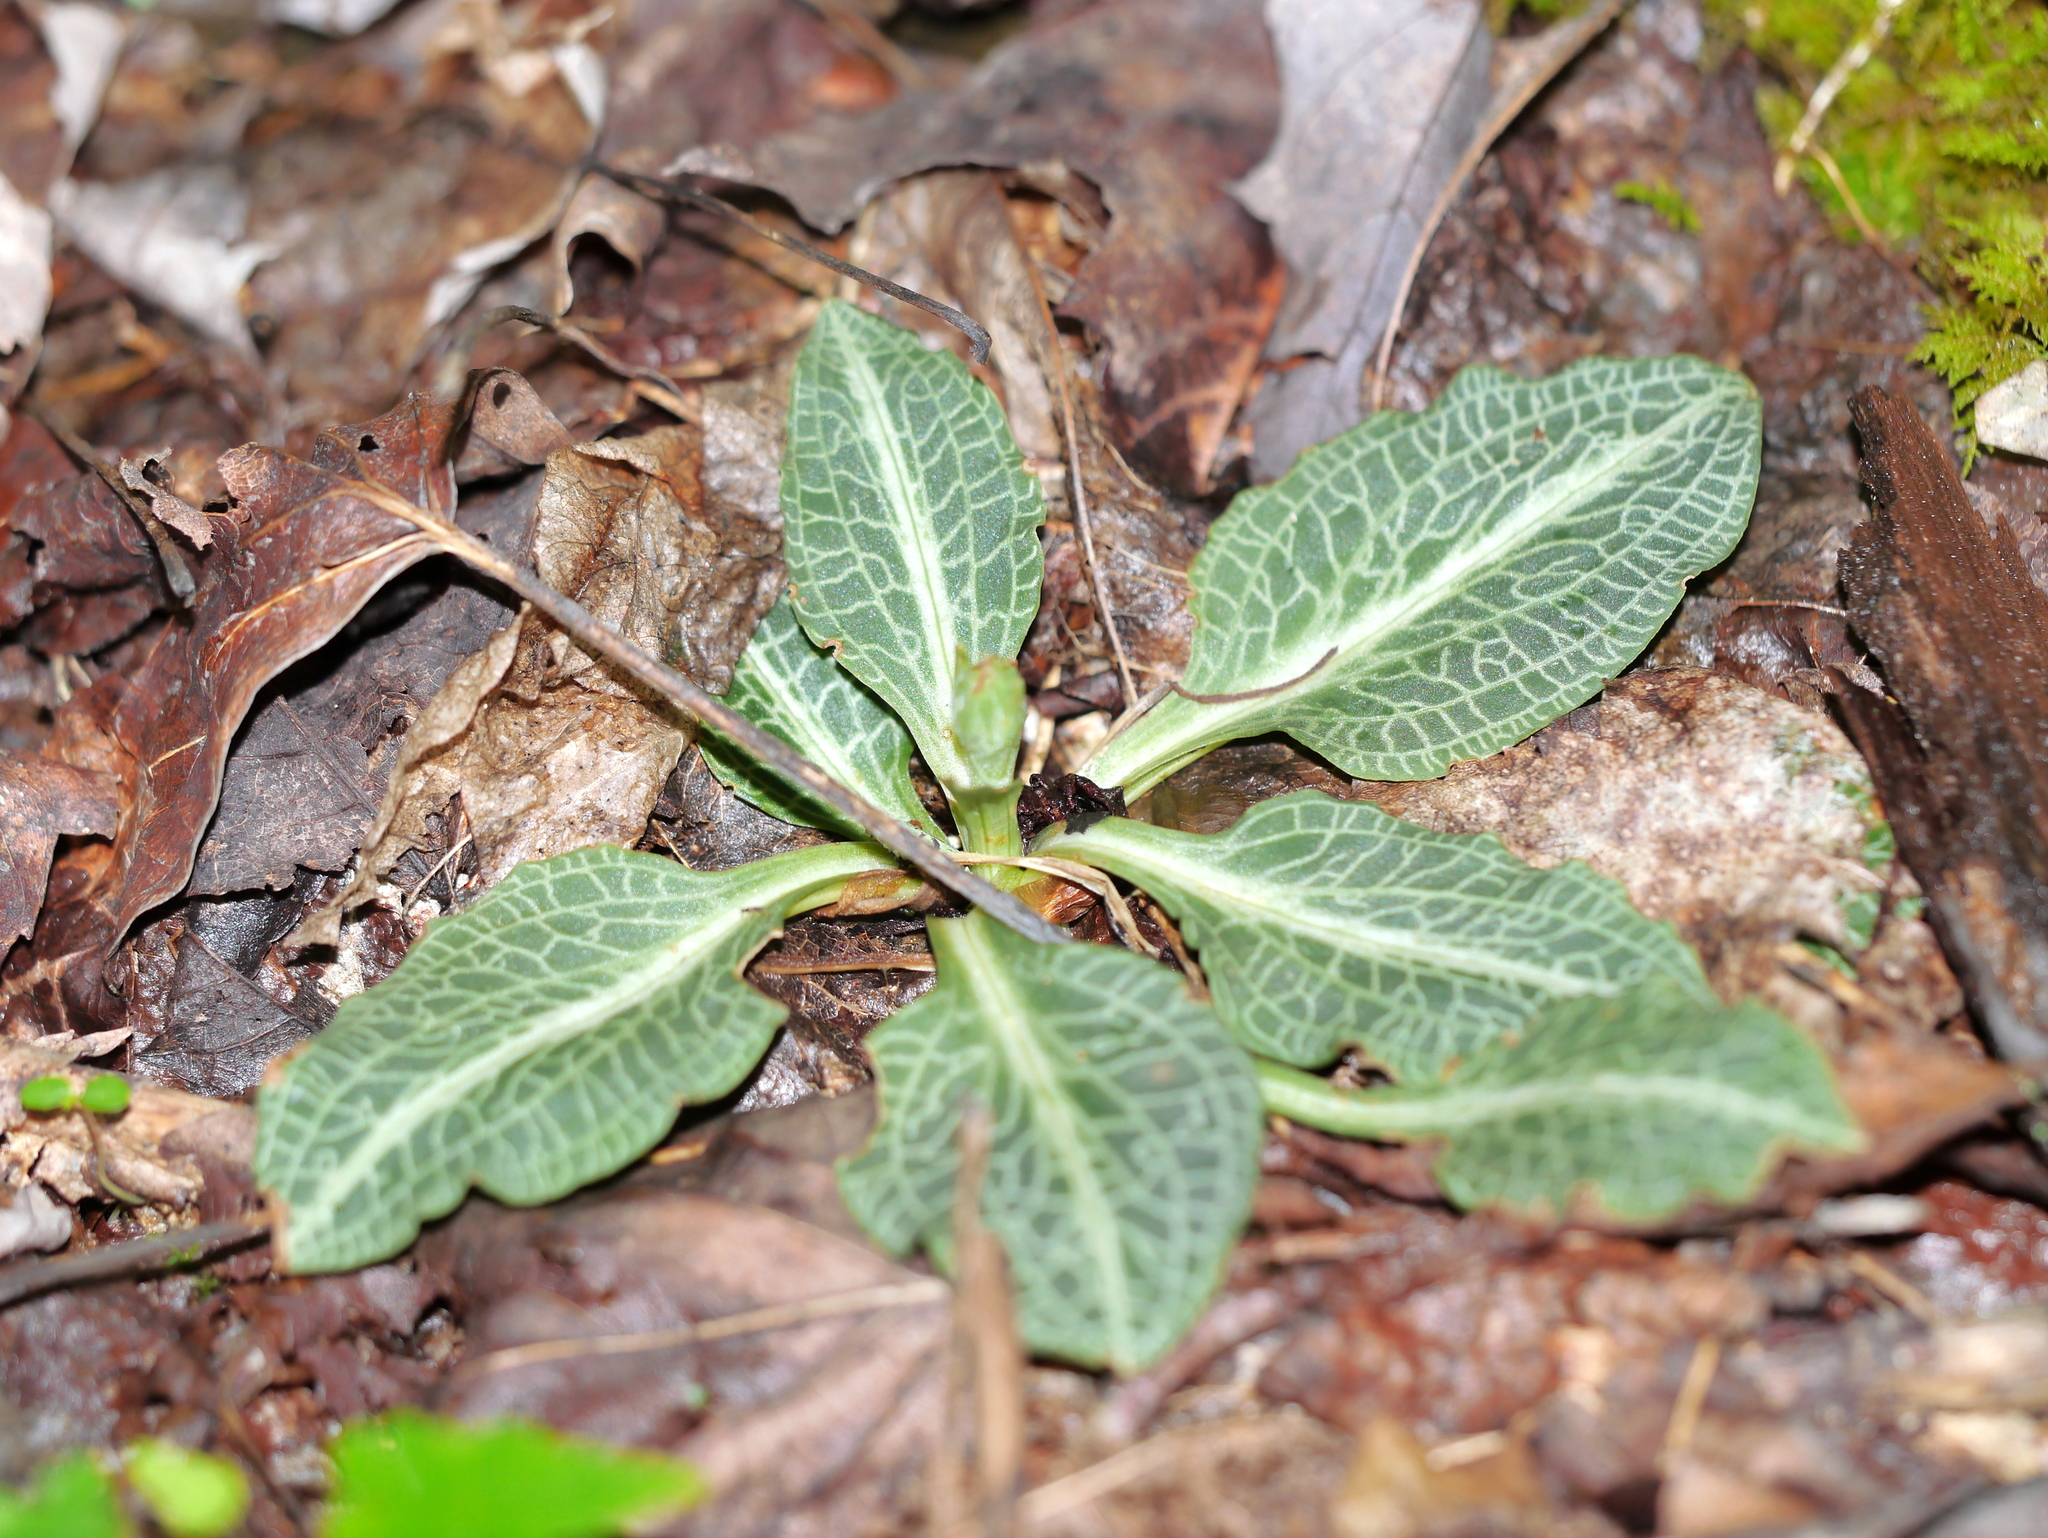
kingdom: Plantae
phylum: Tracheophyta
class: Liliopsida
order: Asparagales
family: Orchidaceae
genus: Goodyera
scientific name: Goodyera pubescens
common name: Downy rattlesnake-plantain
